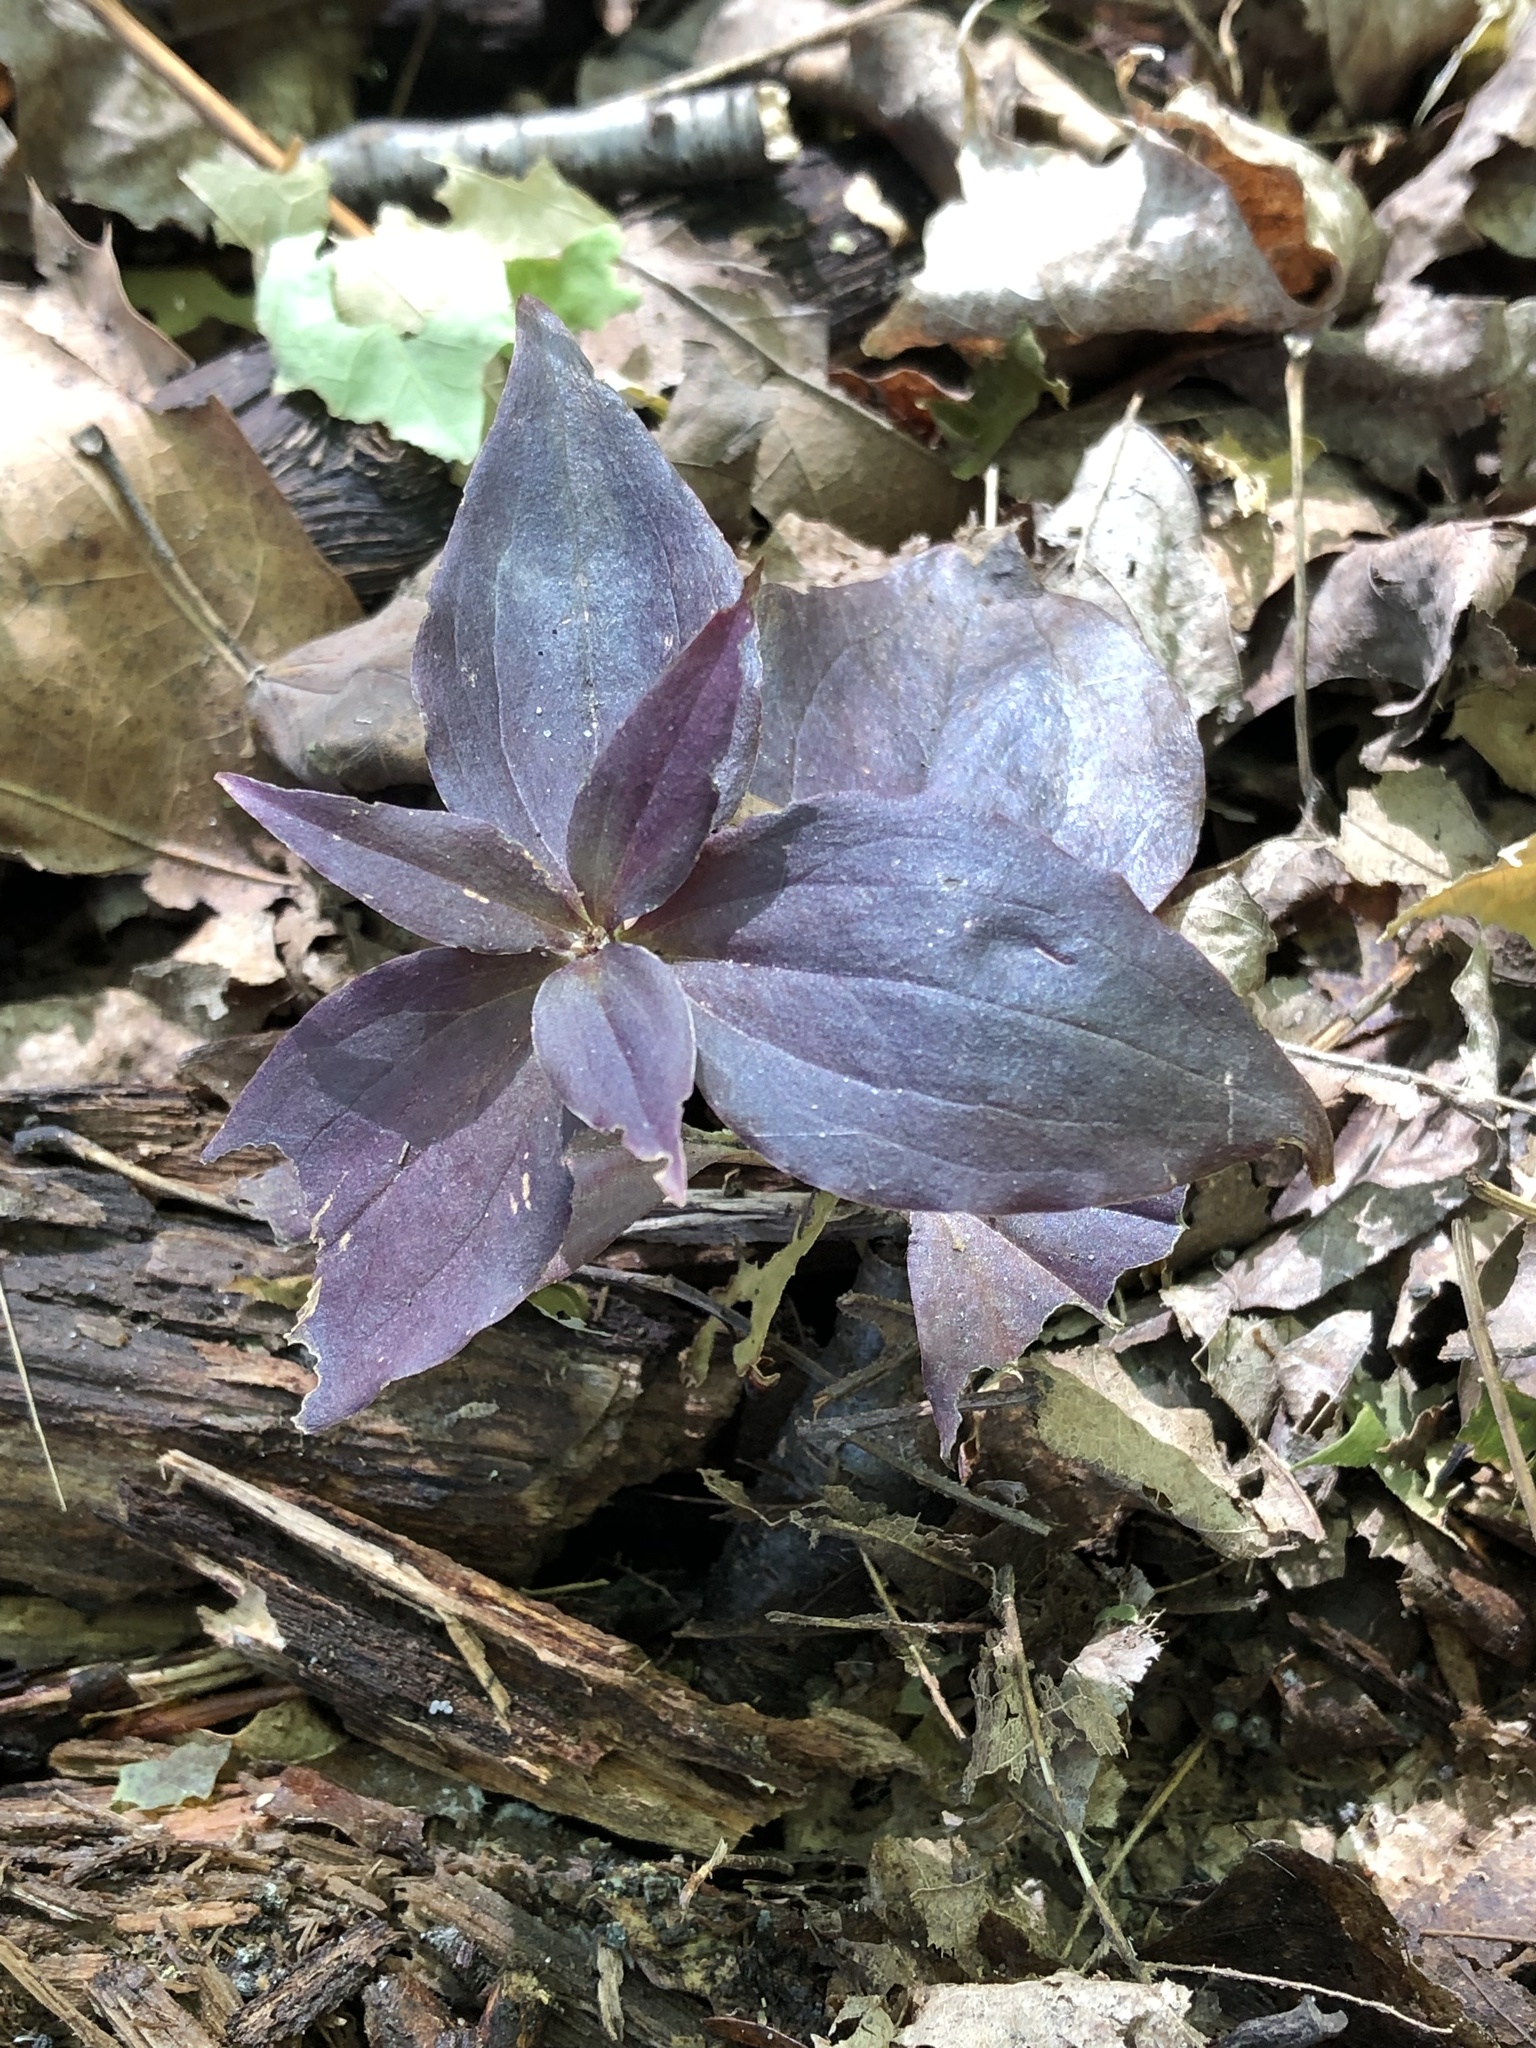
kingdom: Plantae
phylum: Tracheophyta
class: Liliopsida
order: Liliales
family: Melanthiaceae
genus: Trillium
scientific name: Trillium grandiflorum
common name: Great white trillium
